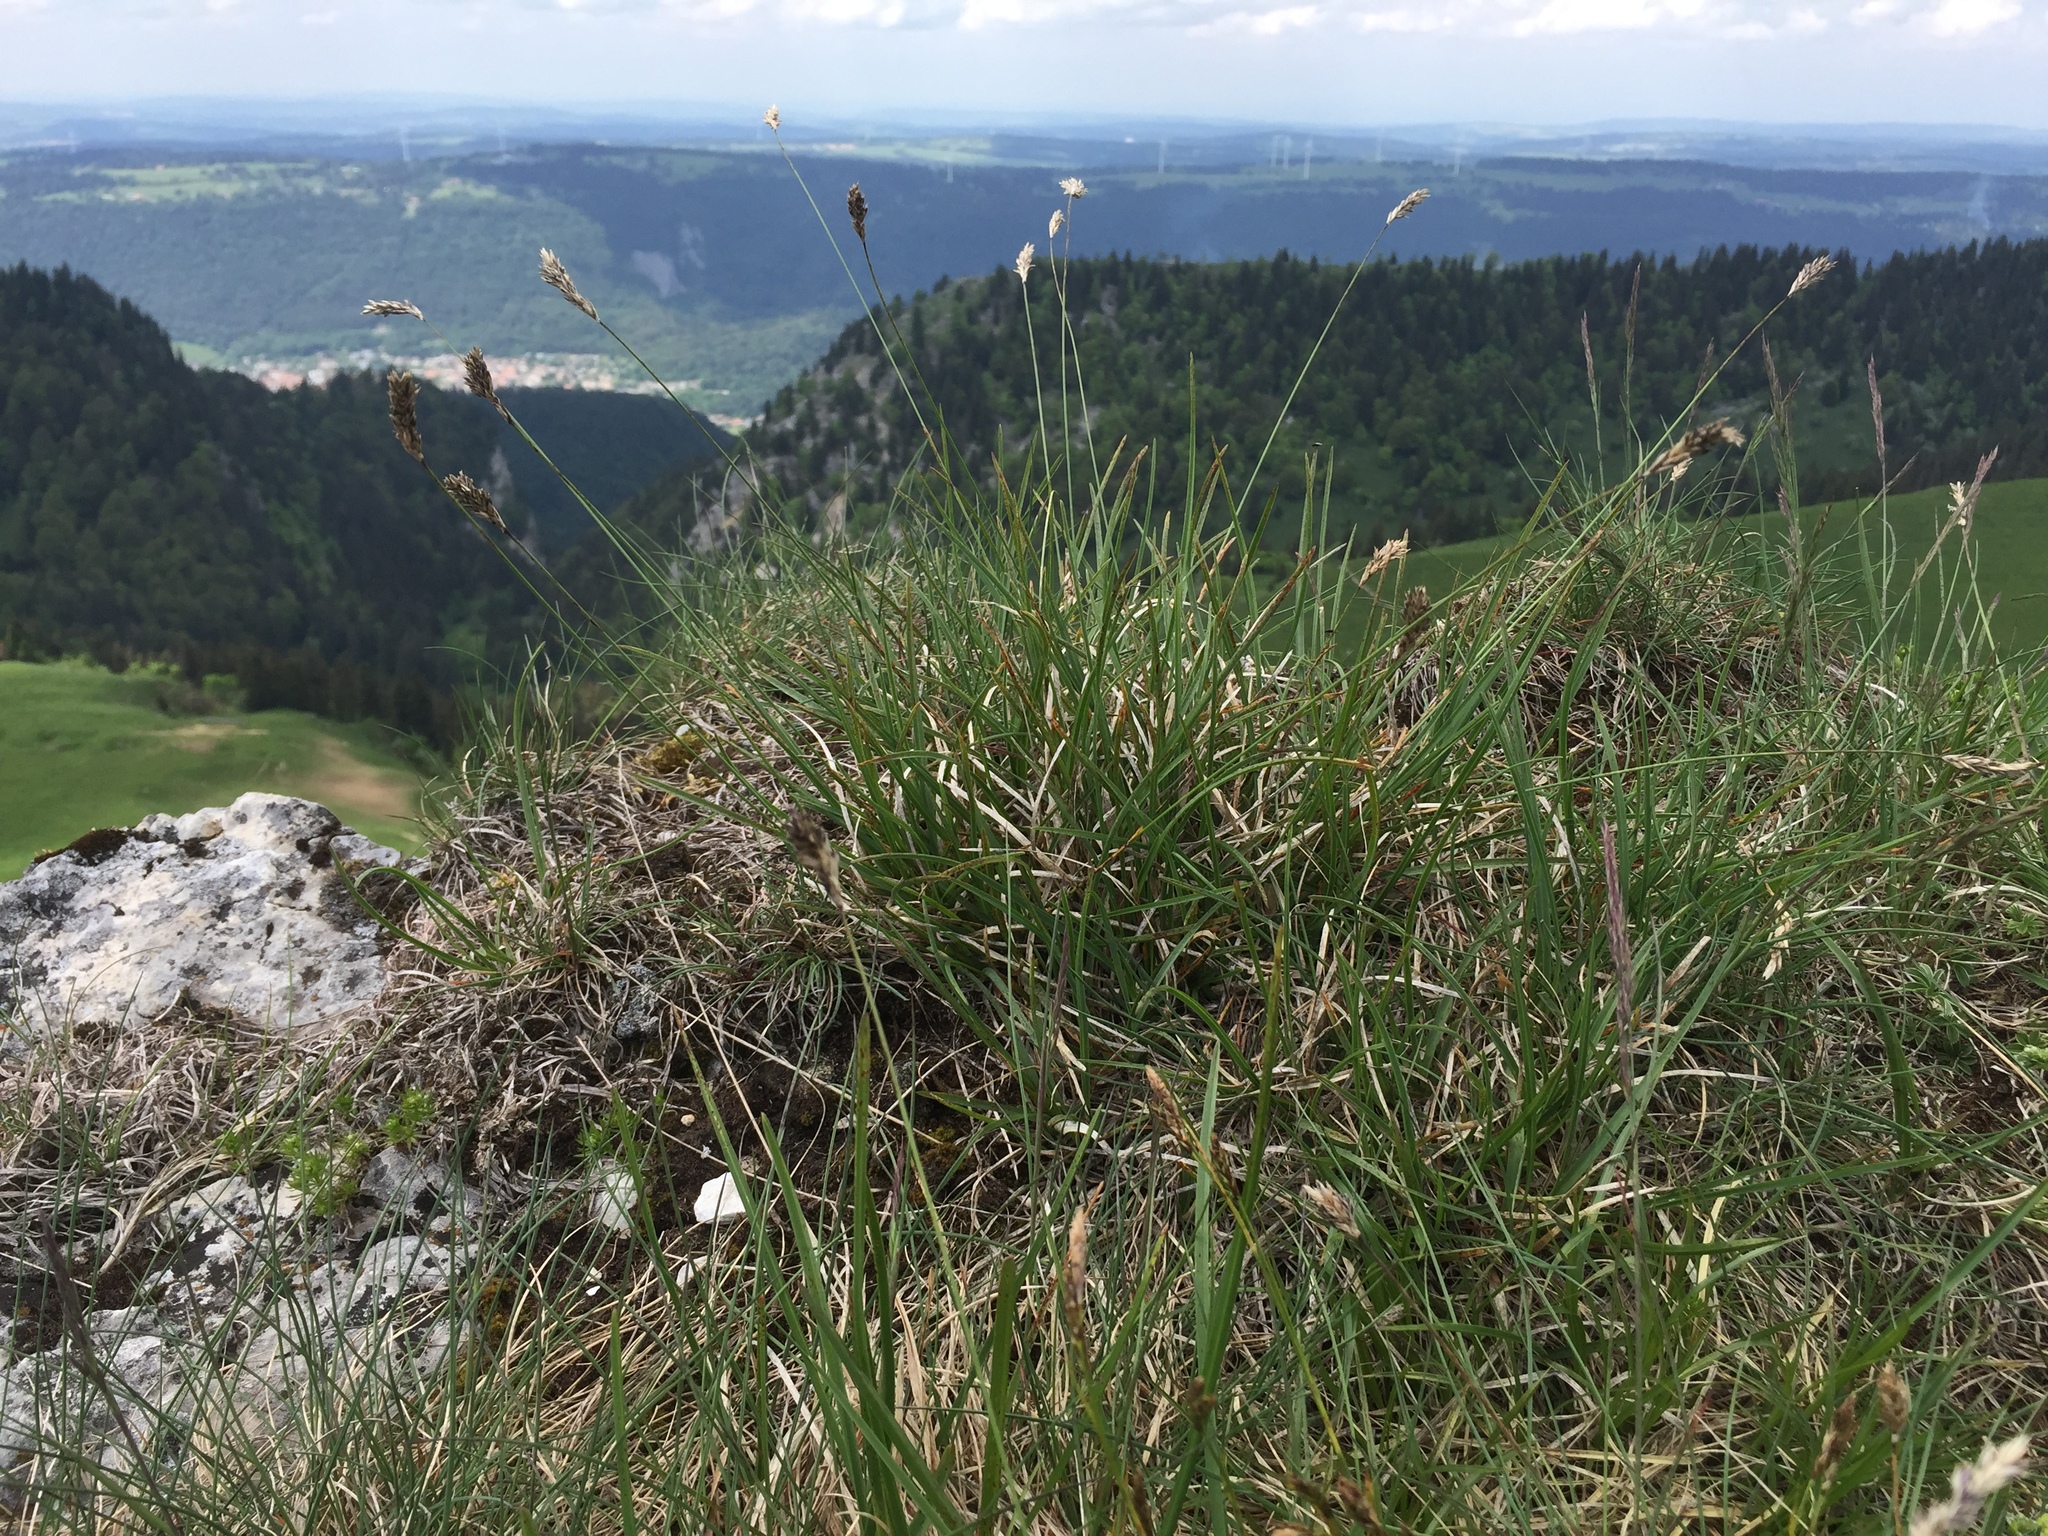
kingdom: Plantae
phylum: Tracheophyta
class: Liliopsida
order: Poales
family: Poaceae
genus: Sesleria
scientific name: Sesleria caerulea
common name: Blue moor-grass
